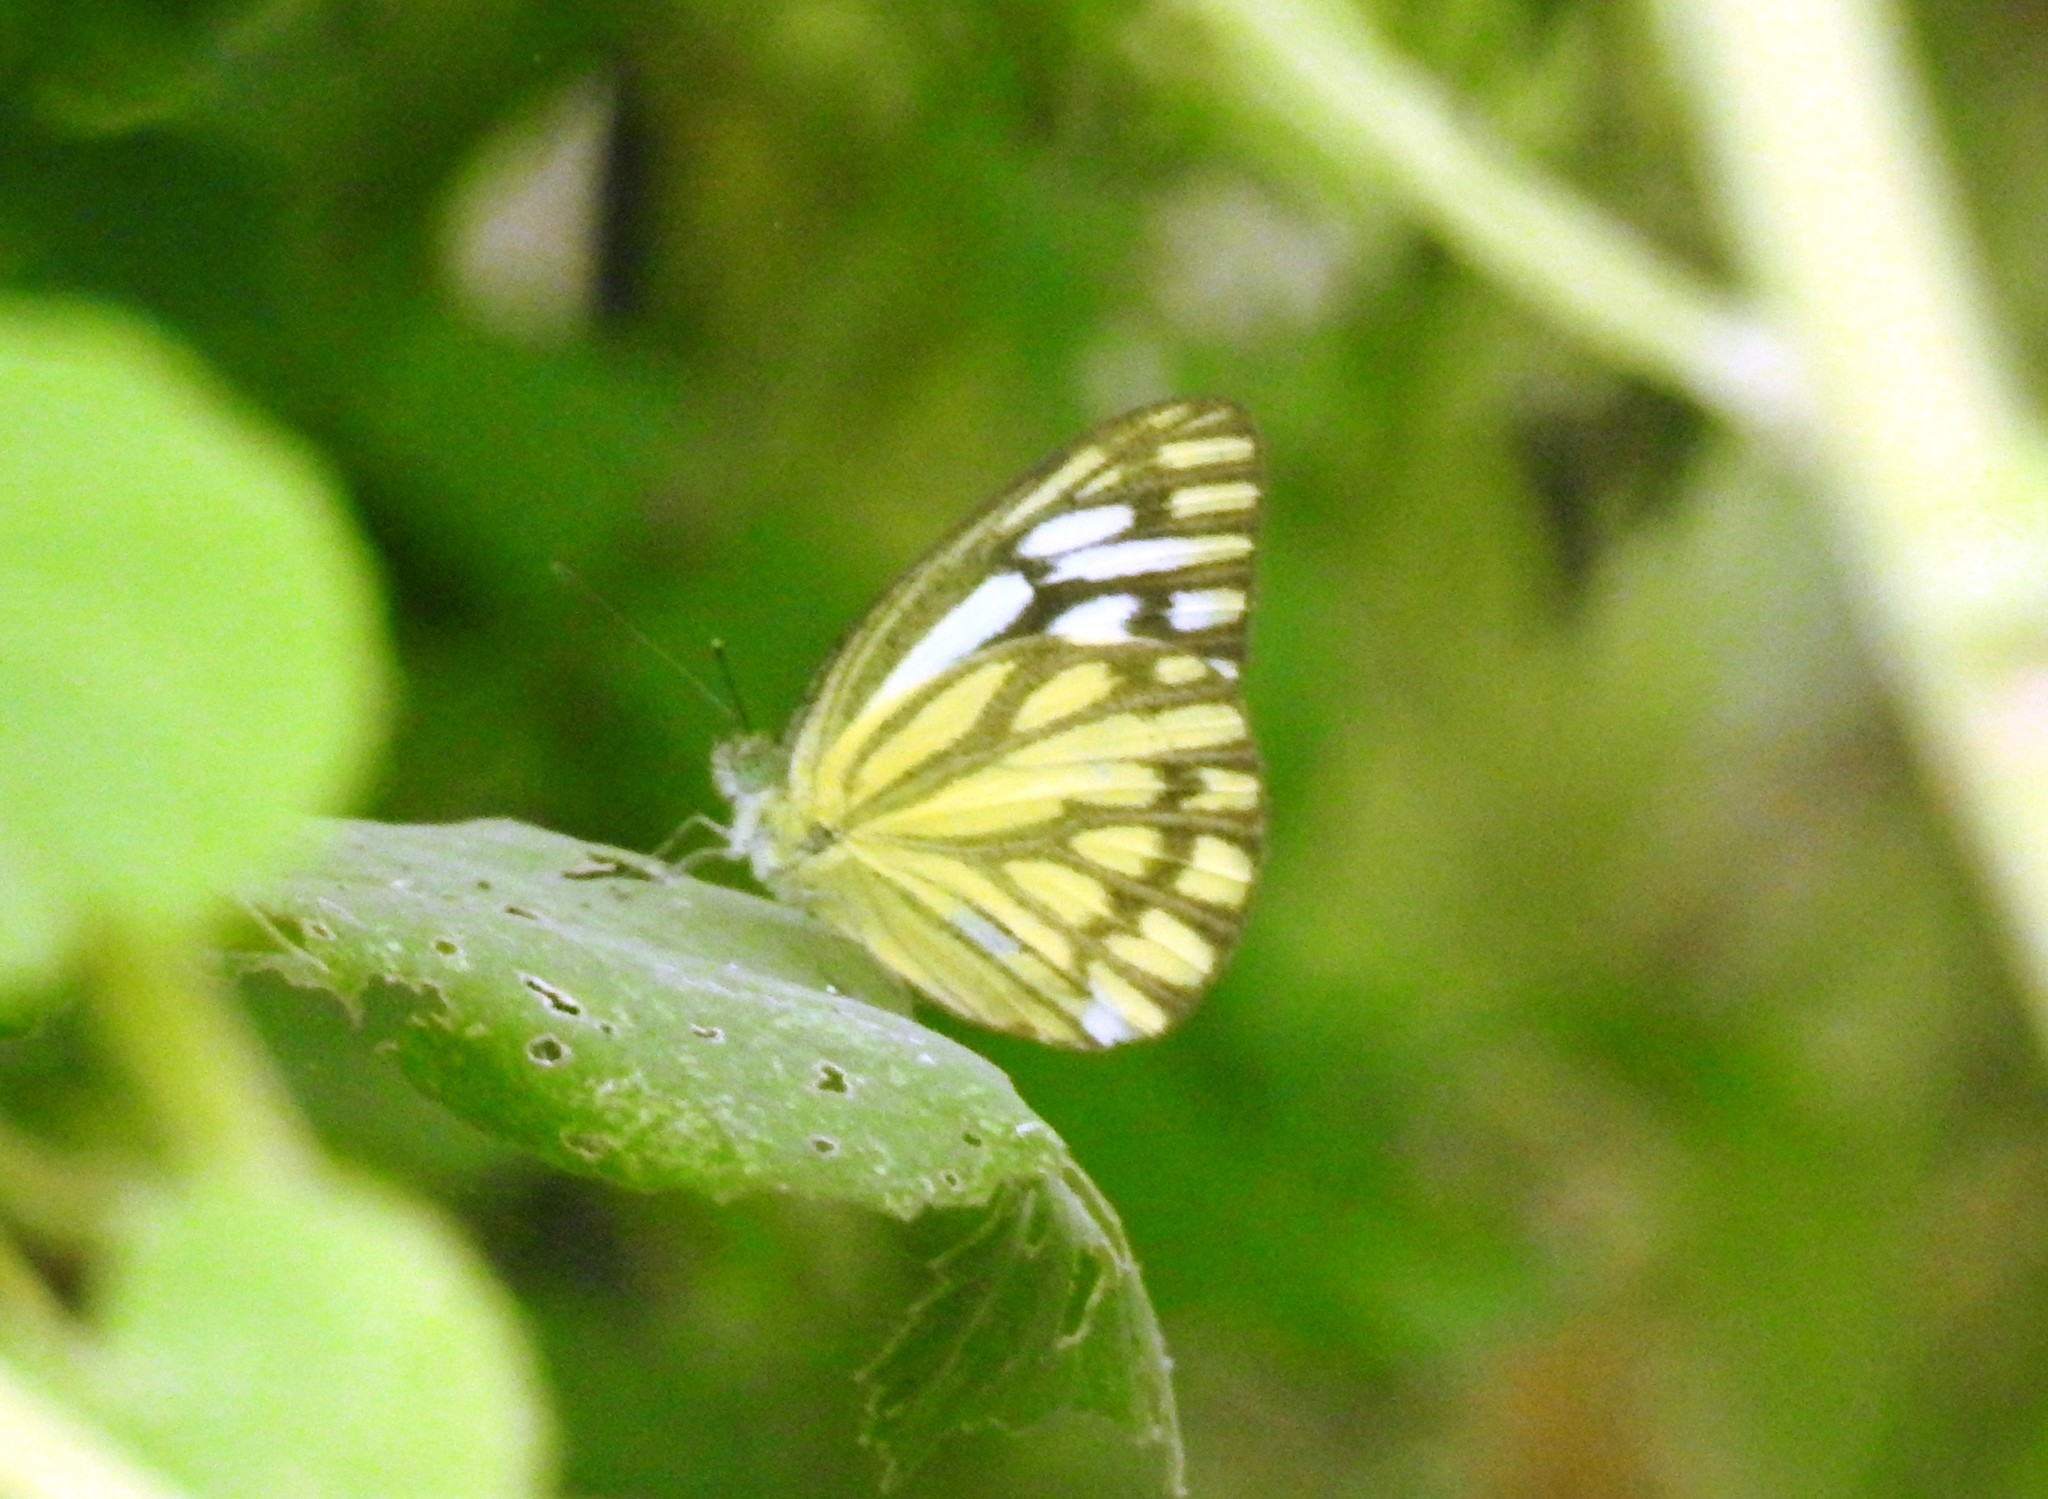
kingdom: Animalia
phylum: Arthropoda
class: Insecta
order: Lepidoptera
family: Pieridae
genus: Cepora
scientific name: Cepora nerissa
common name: Common gull
